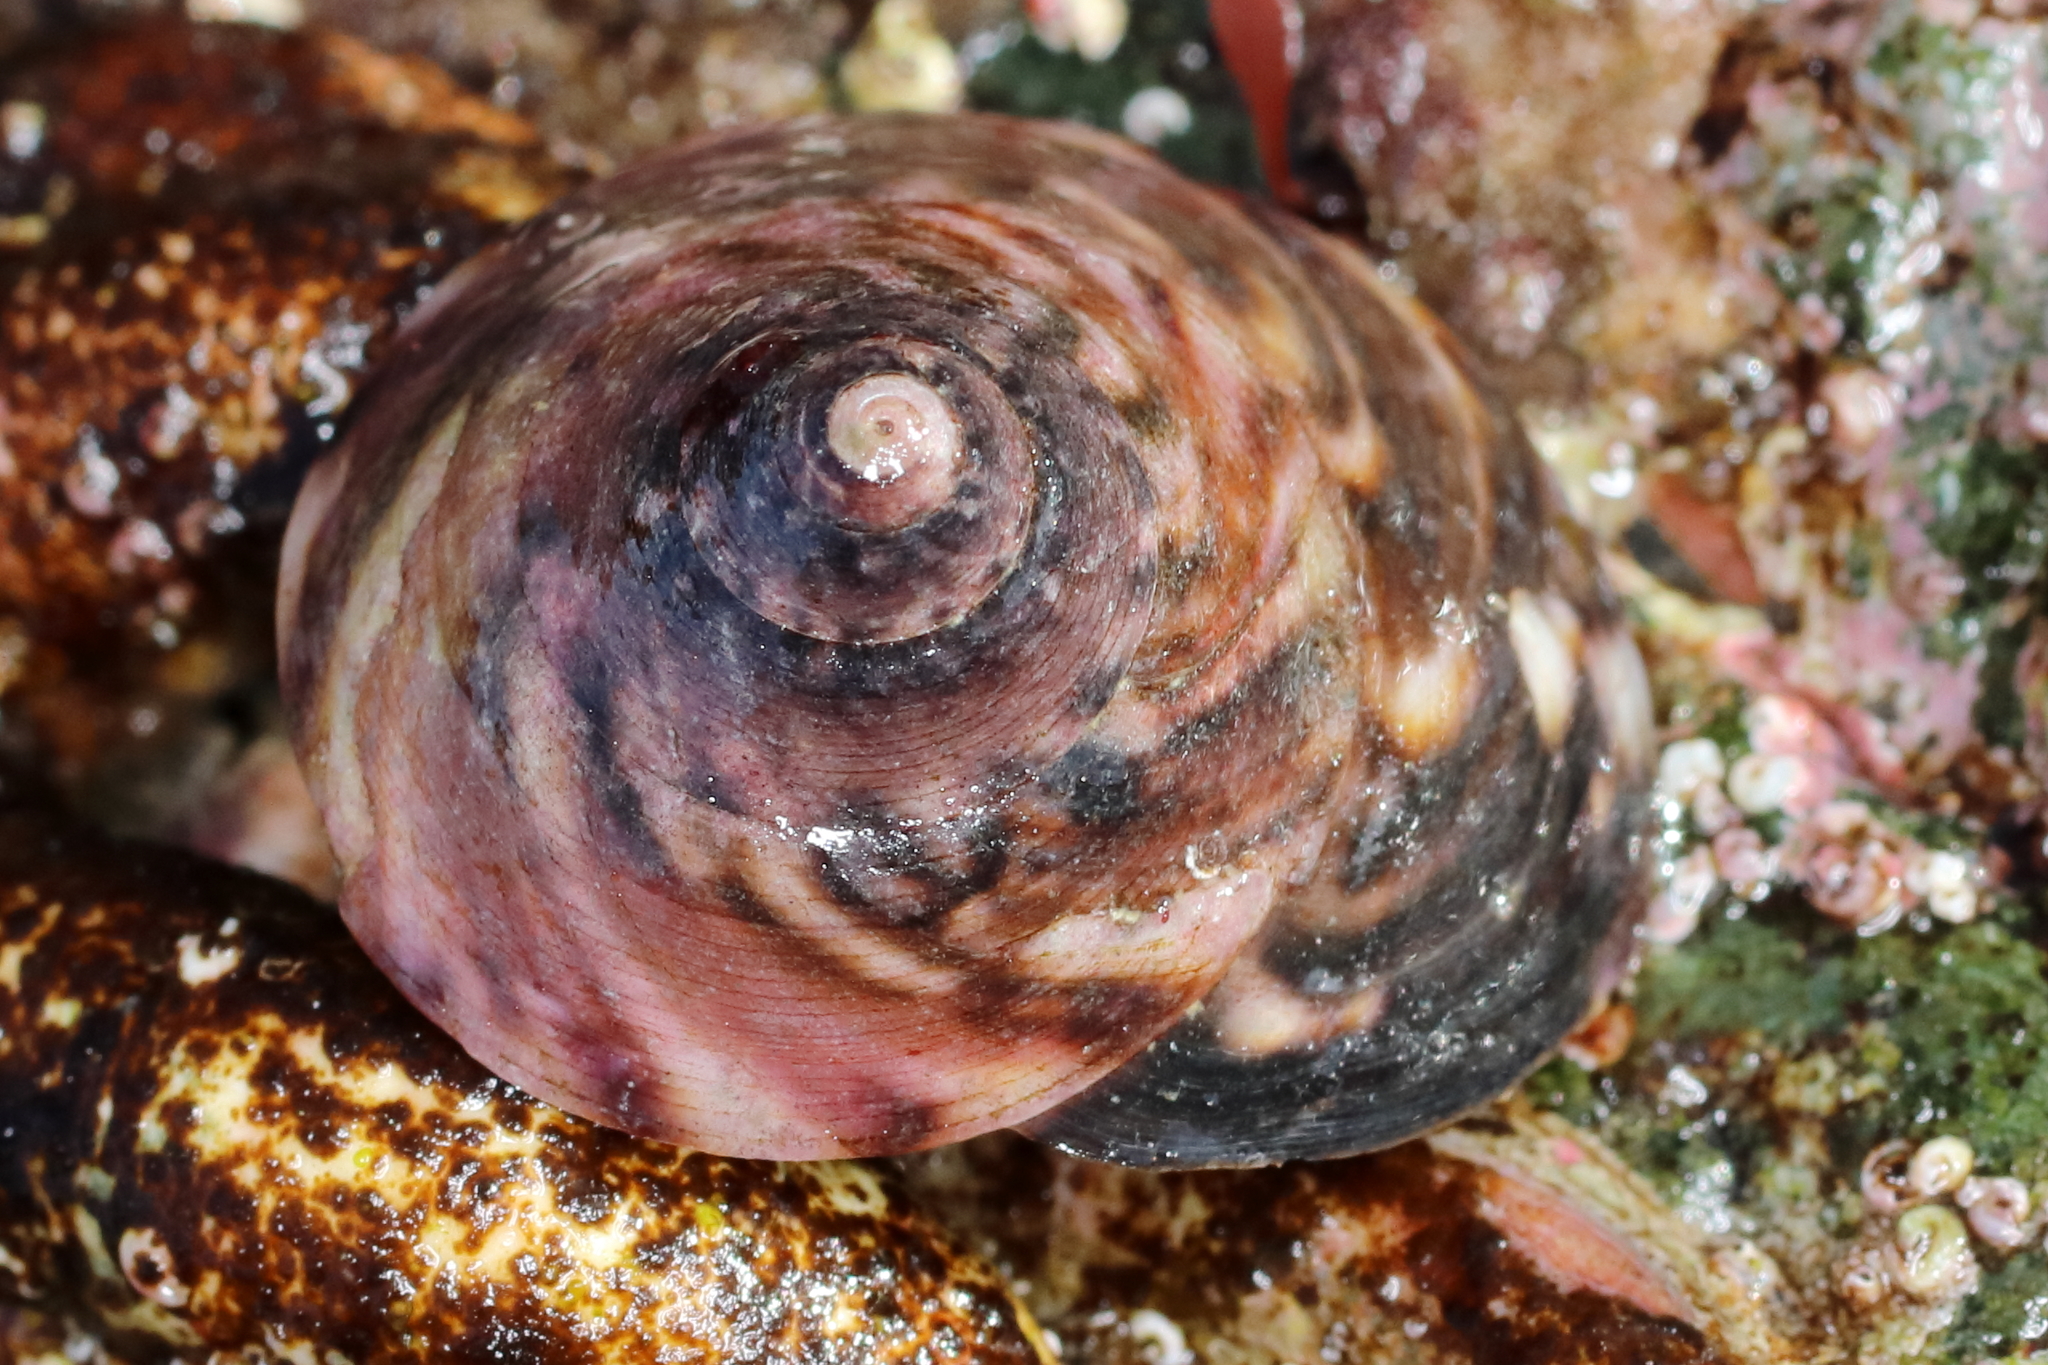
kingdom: Animalia
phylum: Mollusca
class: Gastropoda
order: Trochida
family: Tegulidae
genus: Tegula
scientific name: Tegula pulligo
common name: Brown turban
